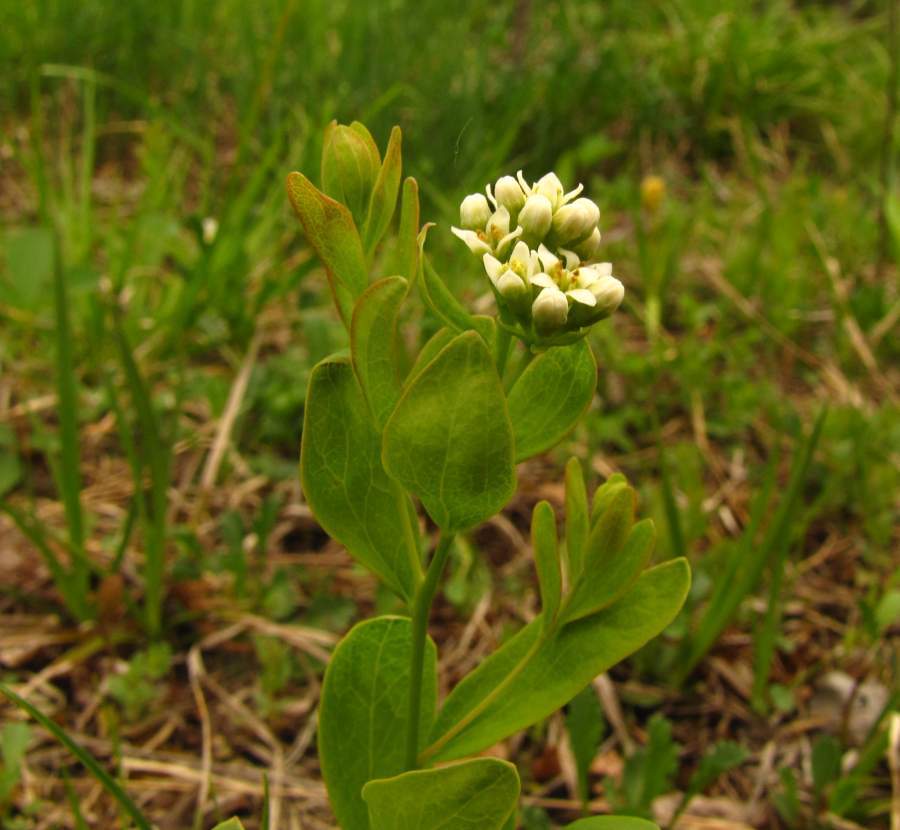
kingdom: Plantae
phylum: Tracheophyta
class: Magnoliopsida
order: Santalales
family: Comandraceae
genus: Comandra
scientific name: Comandra umbellata
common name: Bastard toadflax
